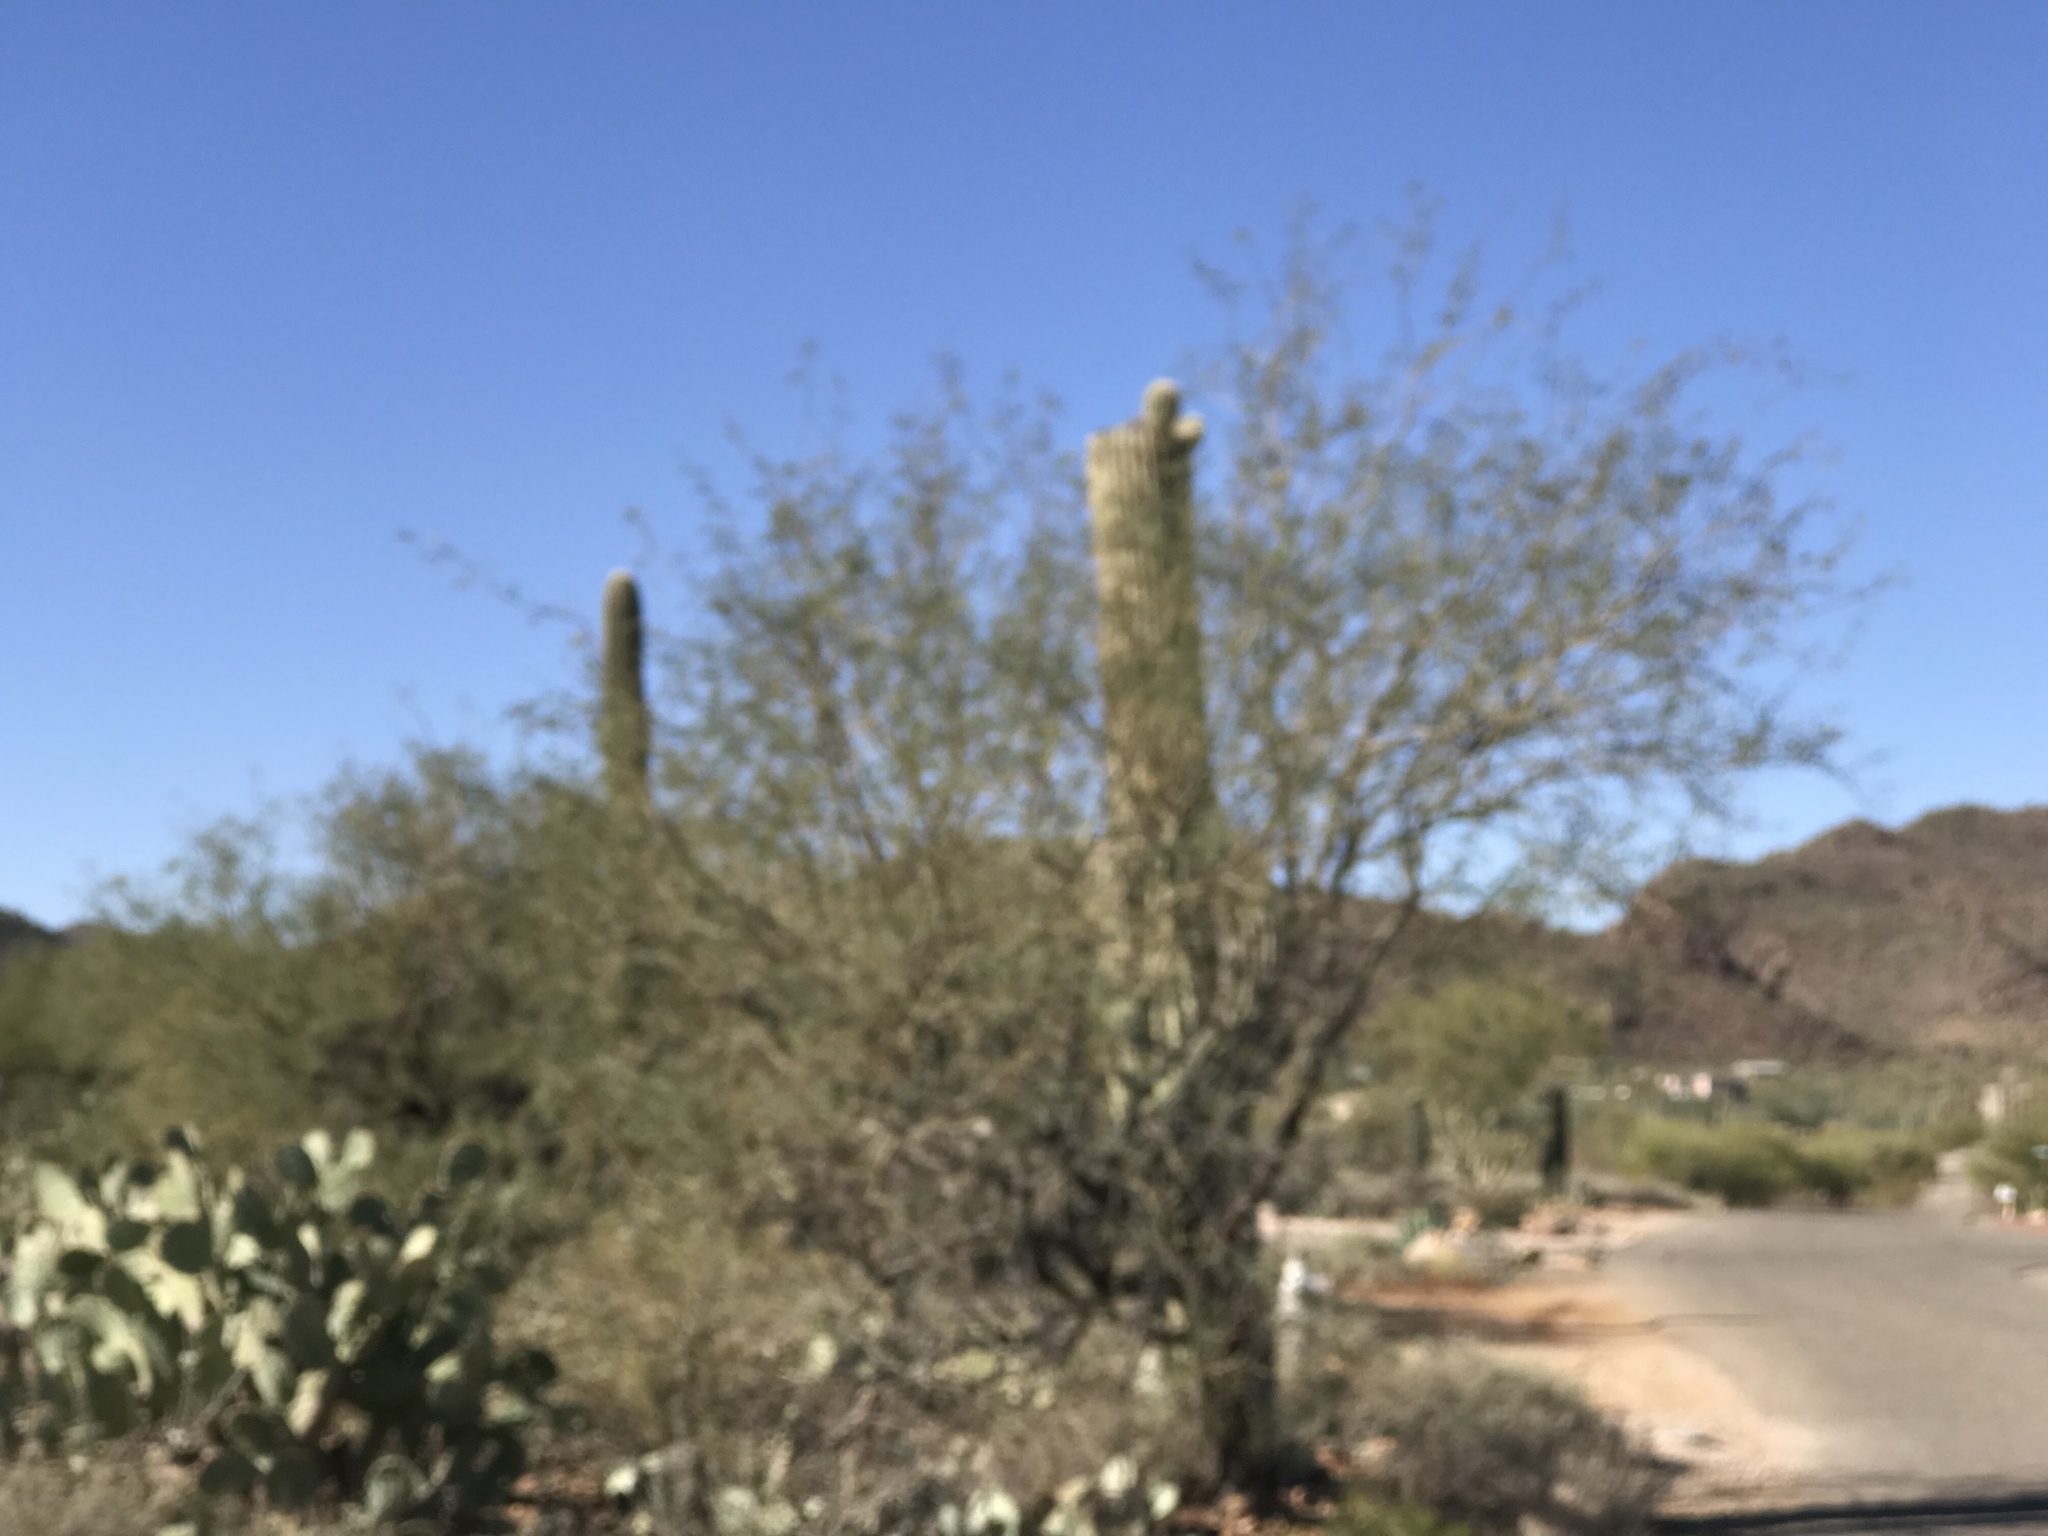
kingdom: Plantae
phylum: Tracheophyta
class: Magnoliopsida
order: Fabales
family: Fabaceae
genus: Prosopis
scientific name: Prosopis velutina
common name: Velvet mesquite
